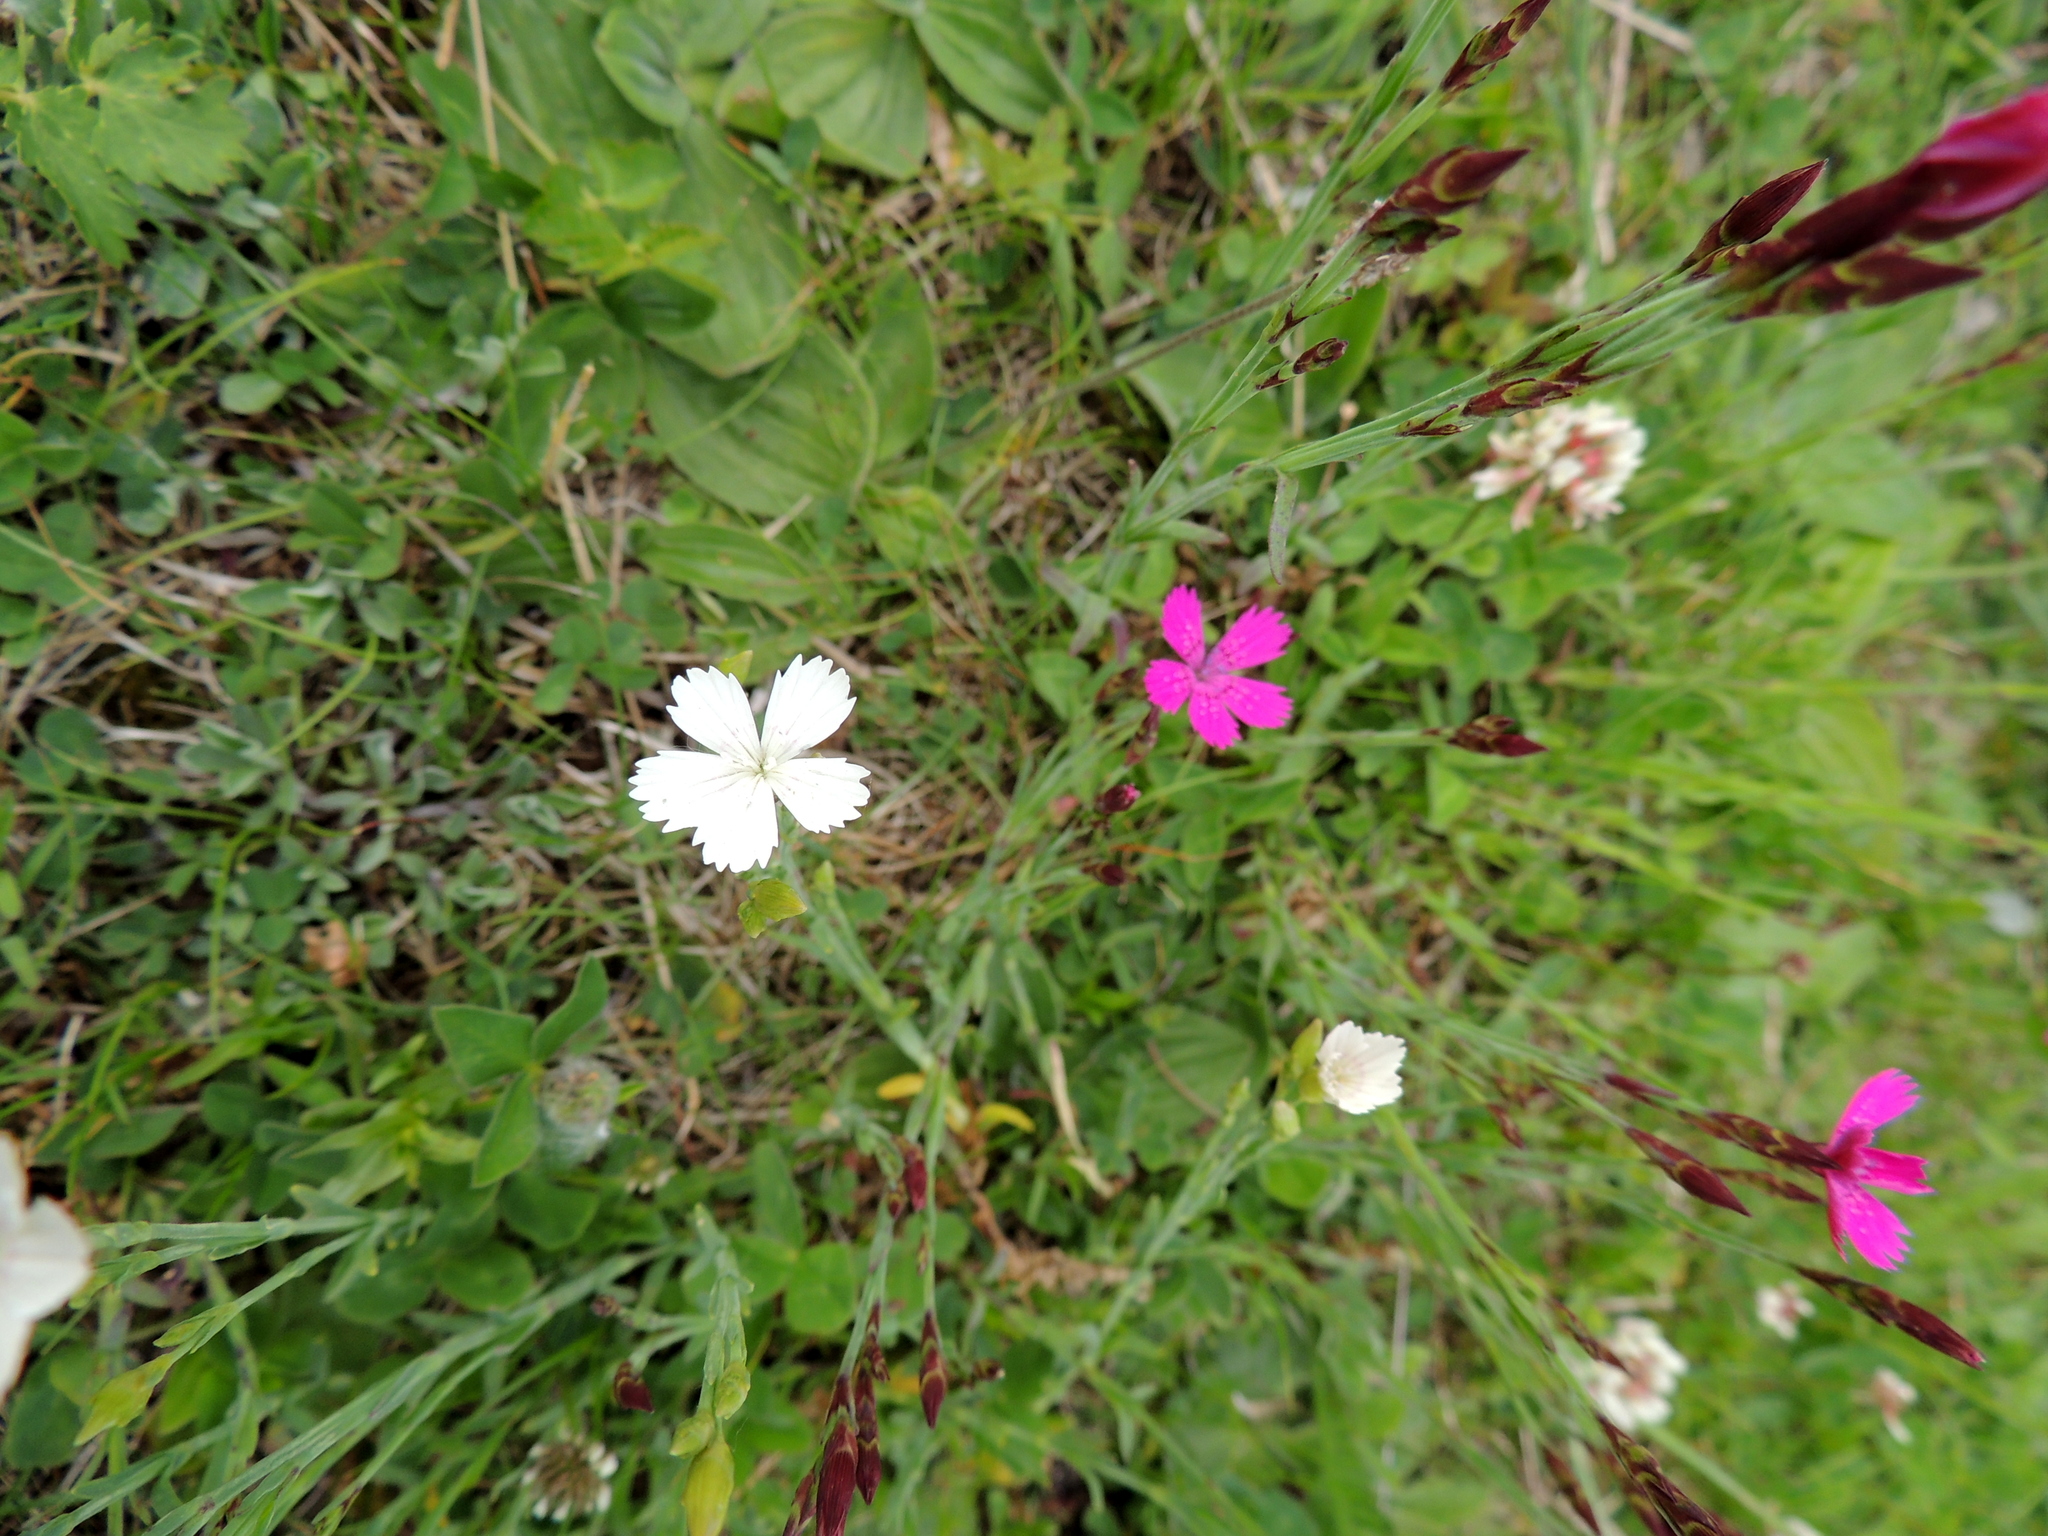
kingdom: Plantae
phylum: Tracheophyta
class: Magnoliopsida
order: Caryophyllales
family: Caryophyllaceae
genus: Dianthus
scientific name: Dianthus deltoides
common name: Maiden pink
